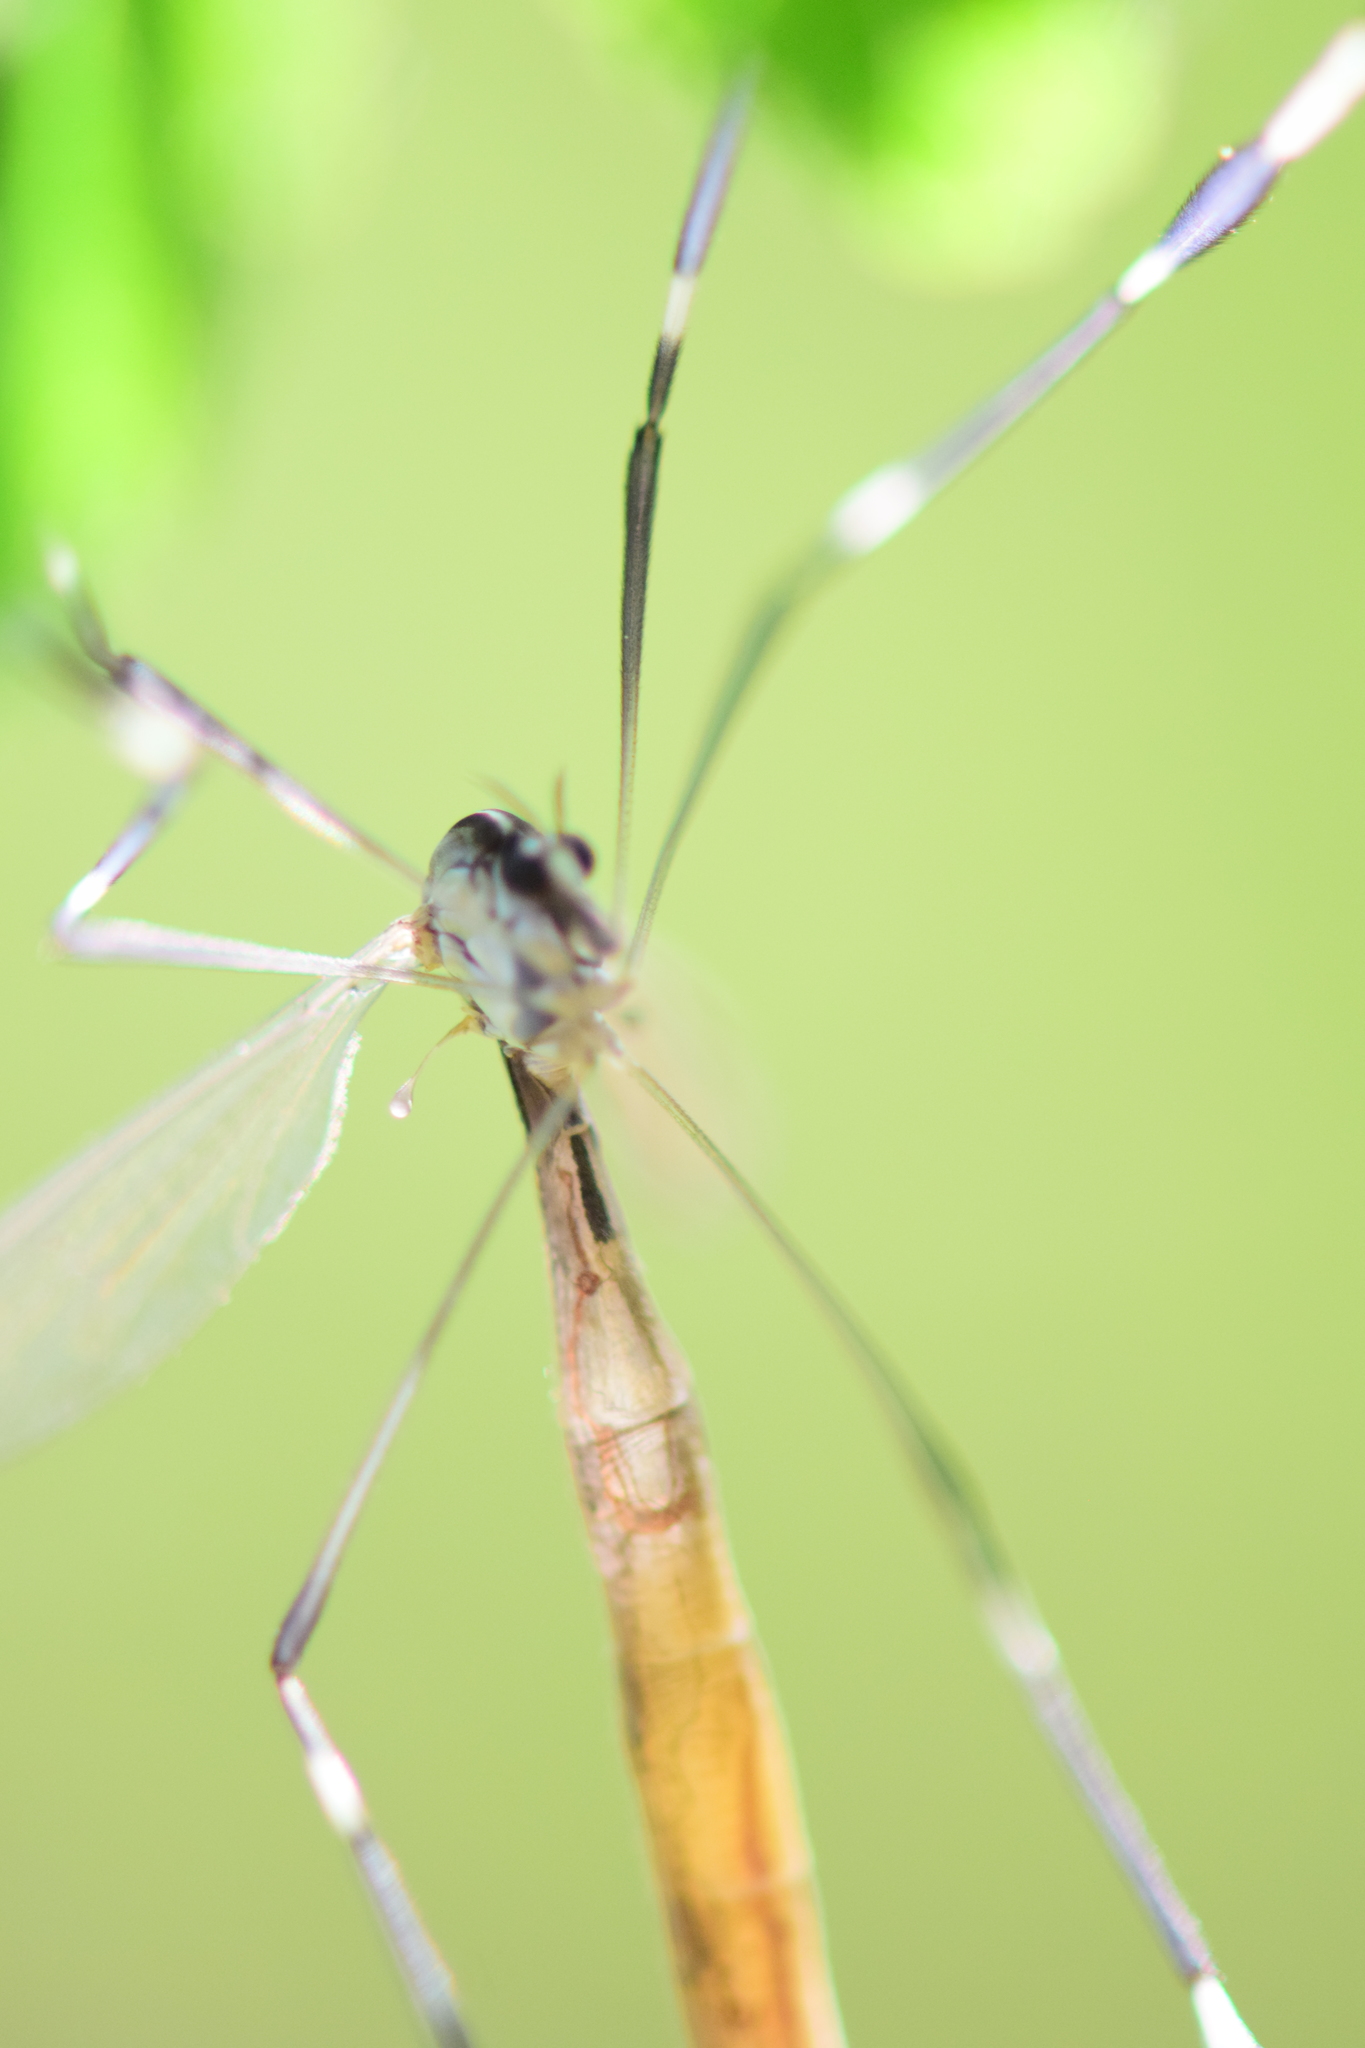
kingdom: Animalia
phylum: Arthropoda
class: Insecta
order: Diptera
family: Ptychopteridae
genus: Bittacomorpha
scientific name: Bittacomorpha clavipes
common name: Eastern phantom crane fly
